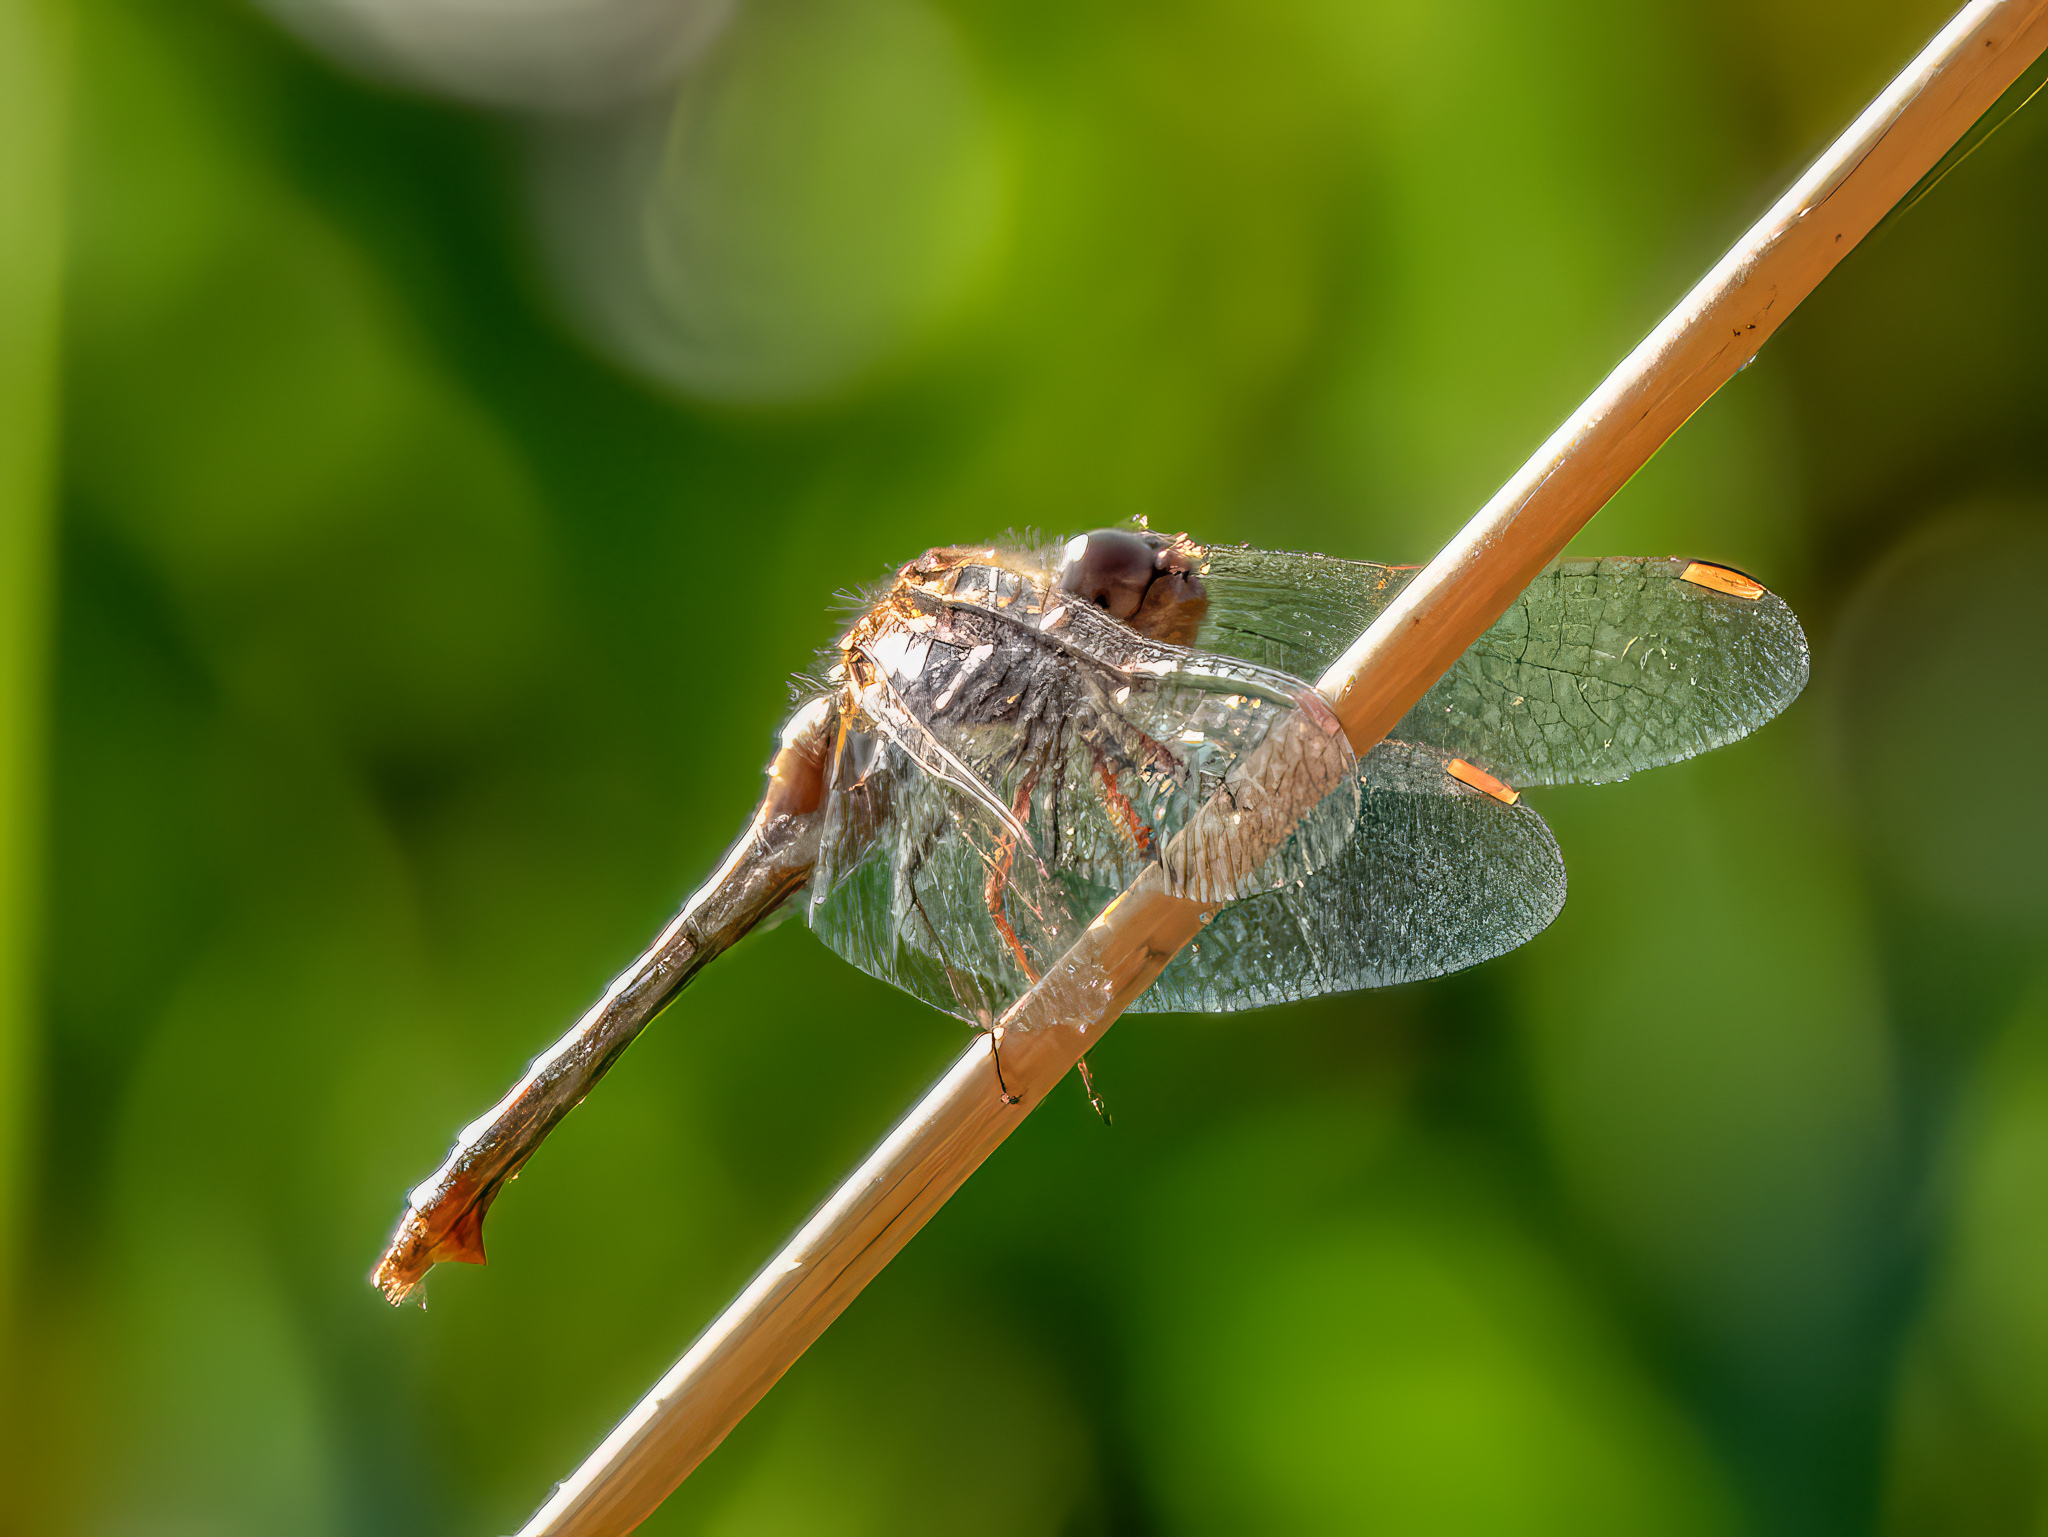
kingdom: Animalia
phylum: Arthropoda
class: Insecta
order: Odonata
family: Libellulidae
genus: Sympetrum
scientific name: Sympetrum vicinum
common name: Autumn meadowhawk
